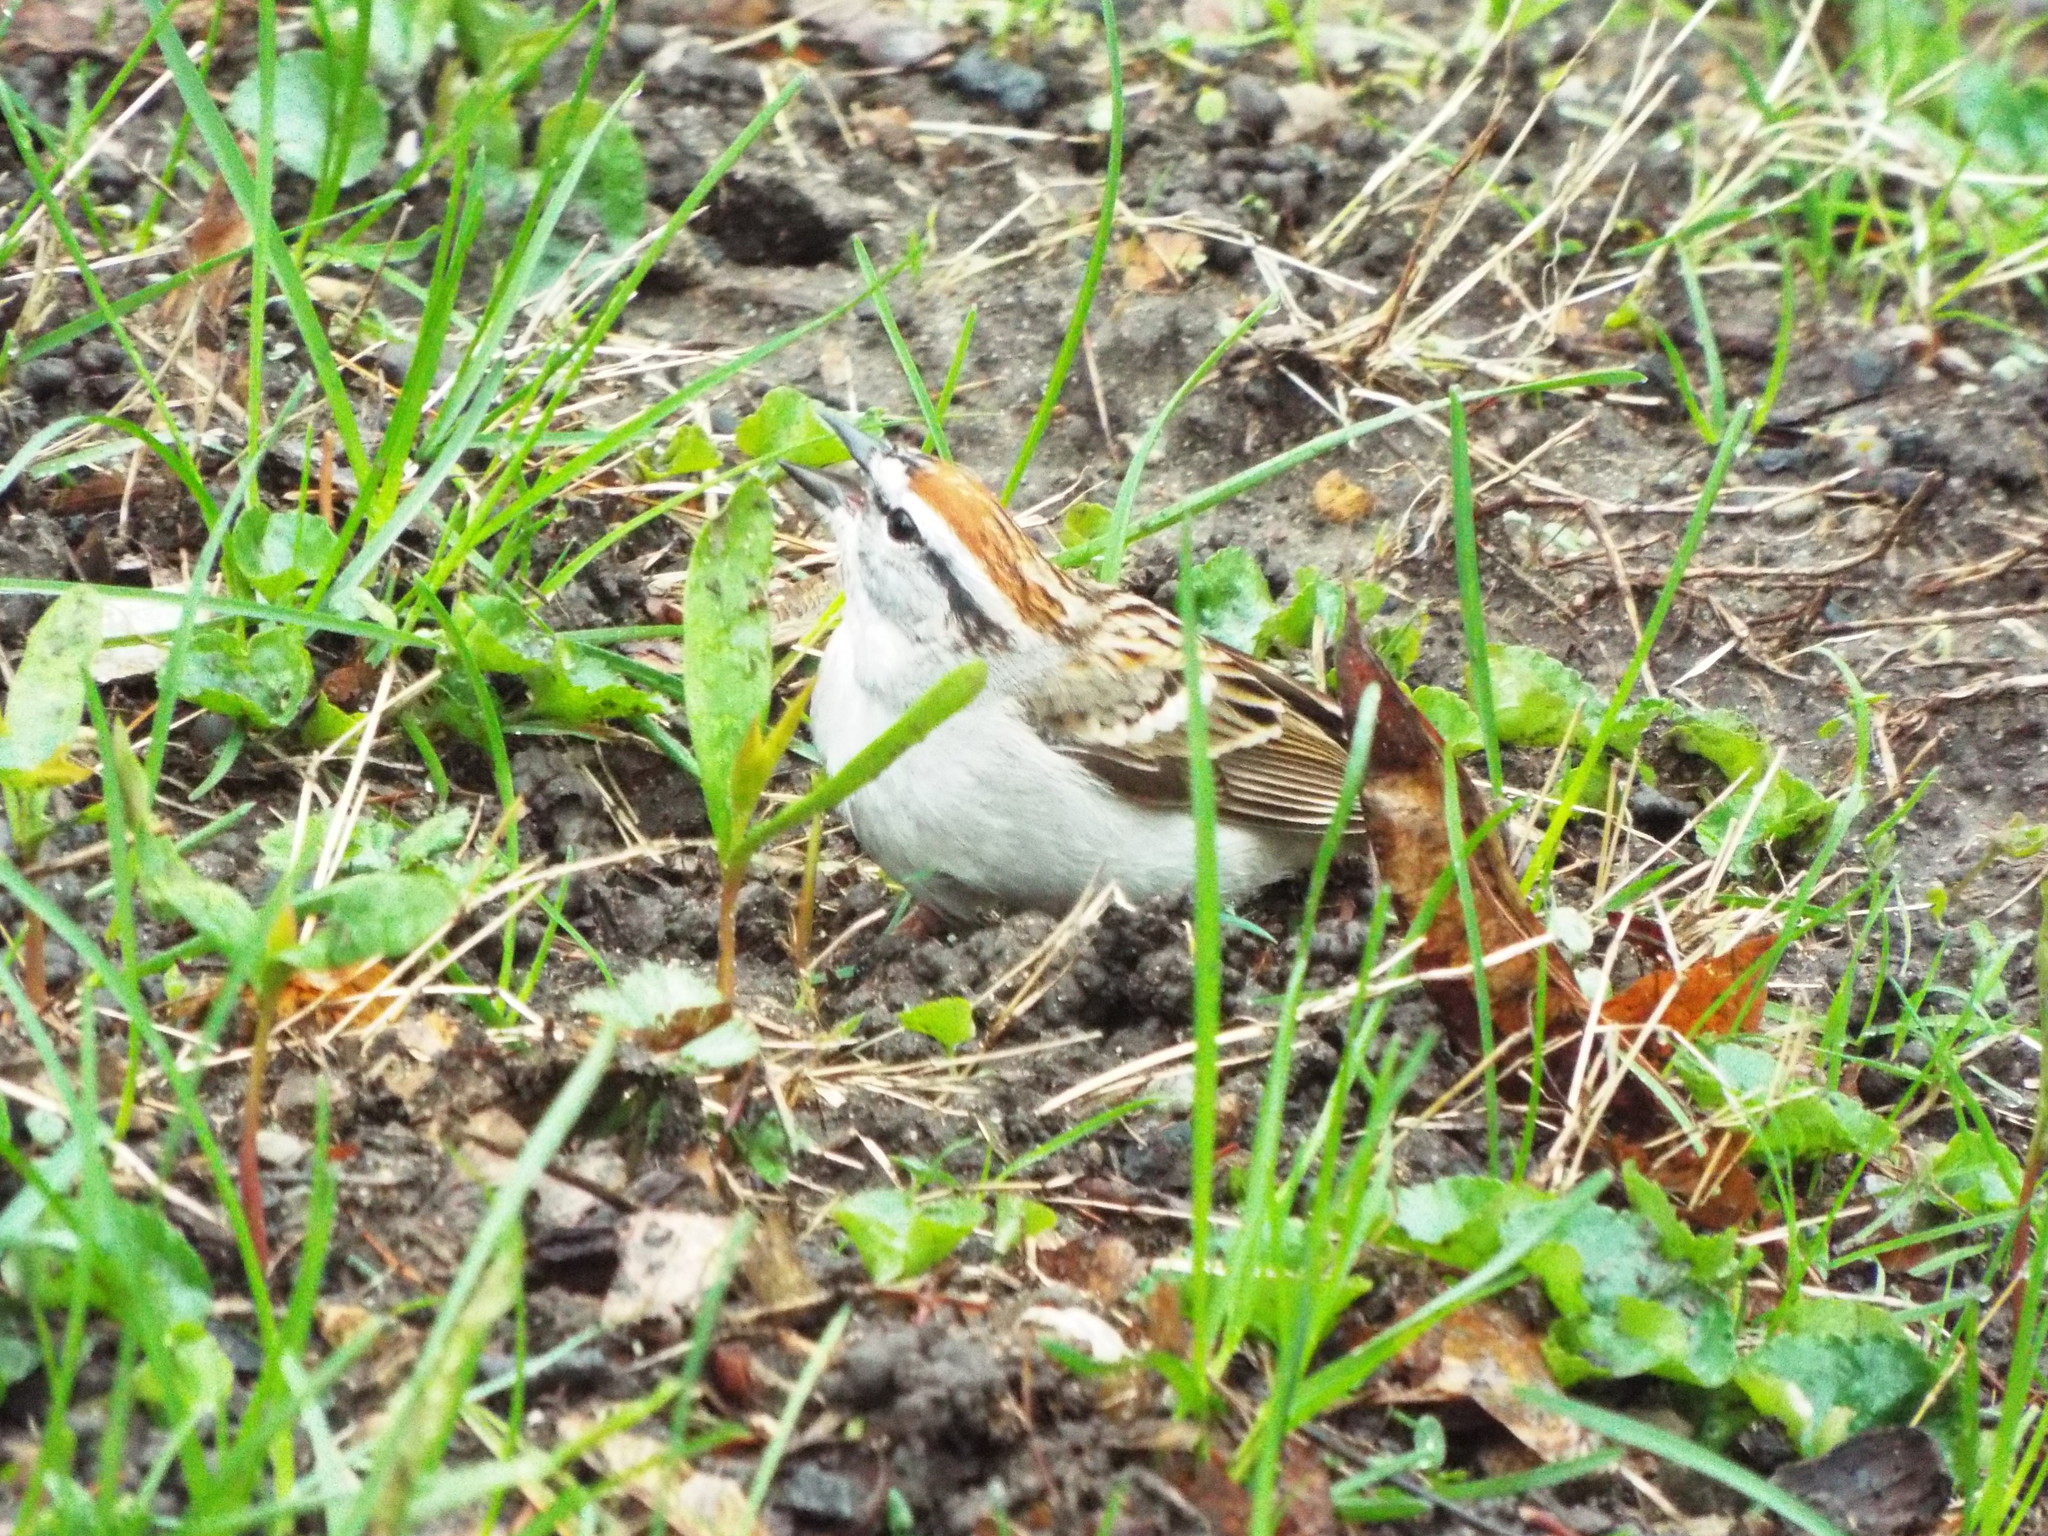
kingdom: Animalia
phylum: Chordata
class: Aves
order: Passeriformes
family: Passerellidae
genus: Spizella
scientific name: Spizella passerina
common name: Chipping sparrow
